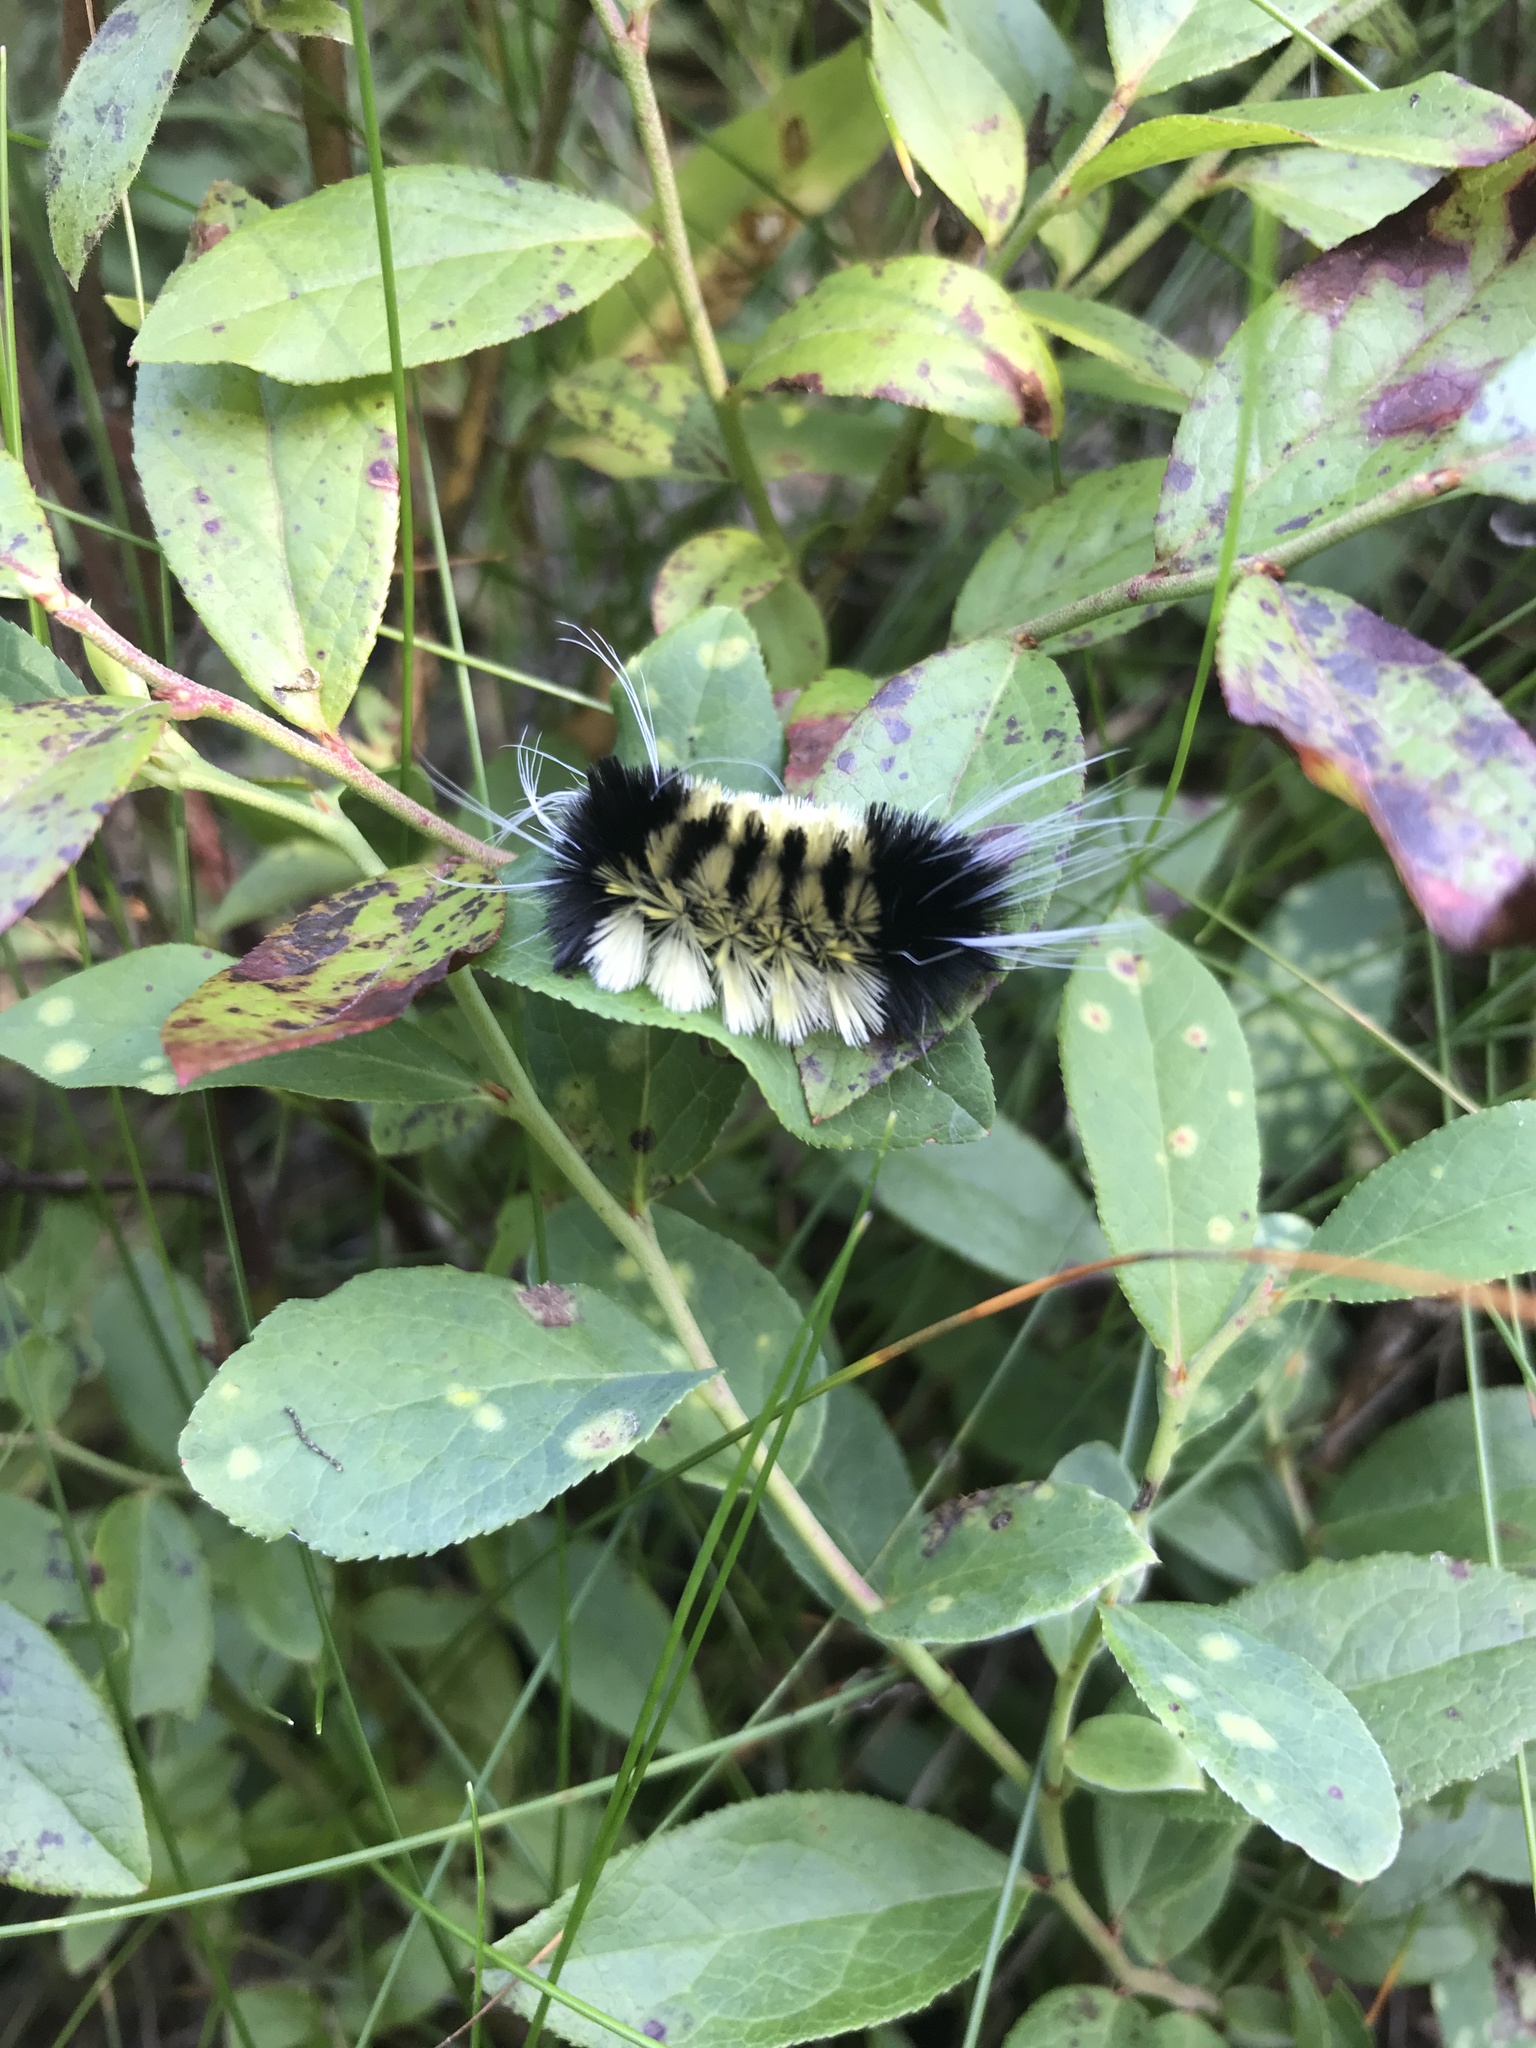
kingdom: Animalia
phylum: Arthropoda
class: Insecta
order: Lepidoptera
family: Erebidae
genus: Lophocampa
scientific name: Lophocampa maculata
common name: Spotted tussock moth
